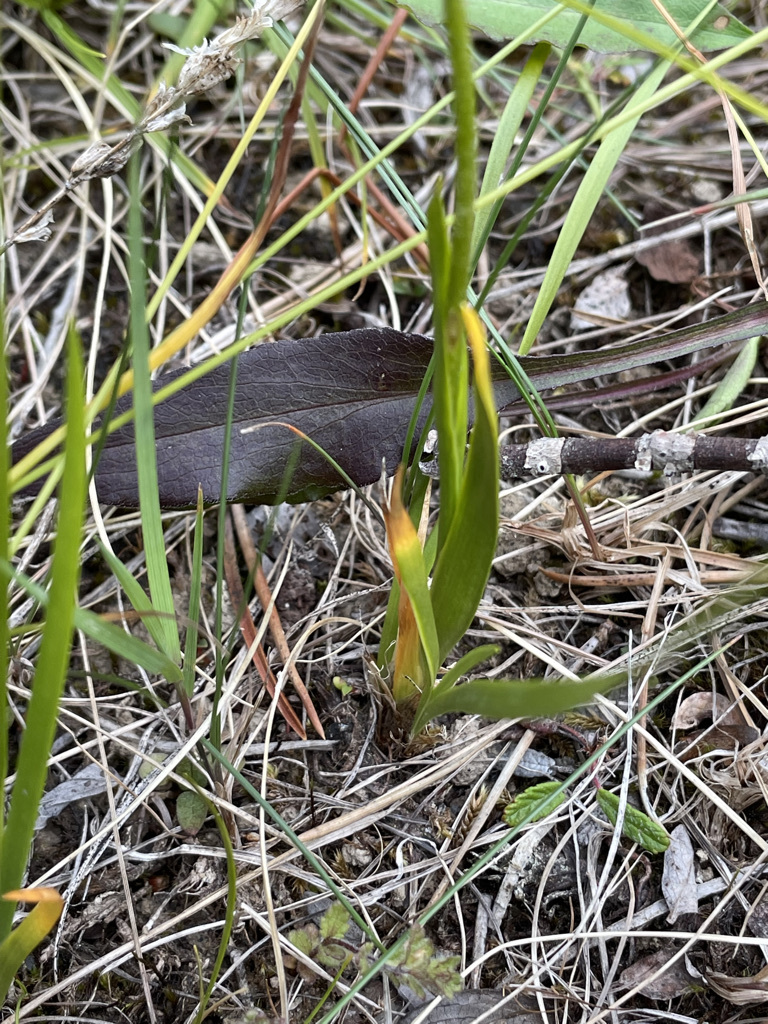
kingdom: Plantae
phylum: Tracheophyta
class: Liliopsida
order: Alismatales
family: Tofieldiaceae
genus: Triantha
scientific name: Triantha glutinosa
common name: Glutinous tofieldia
